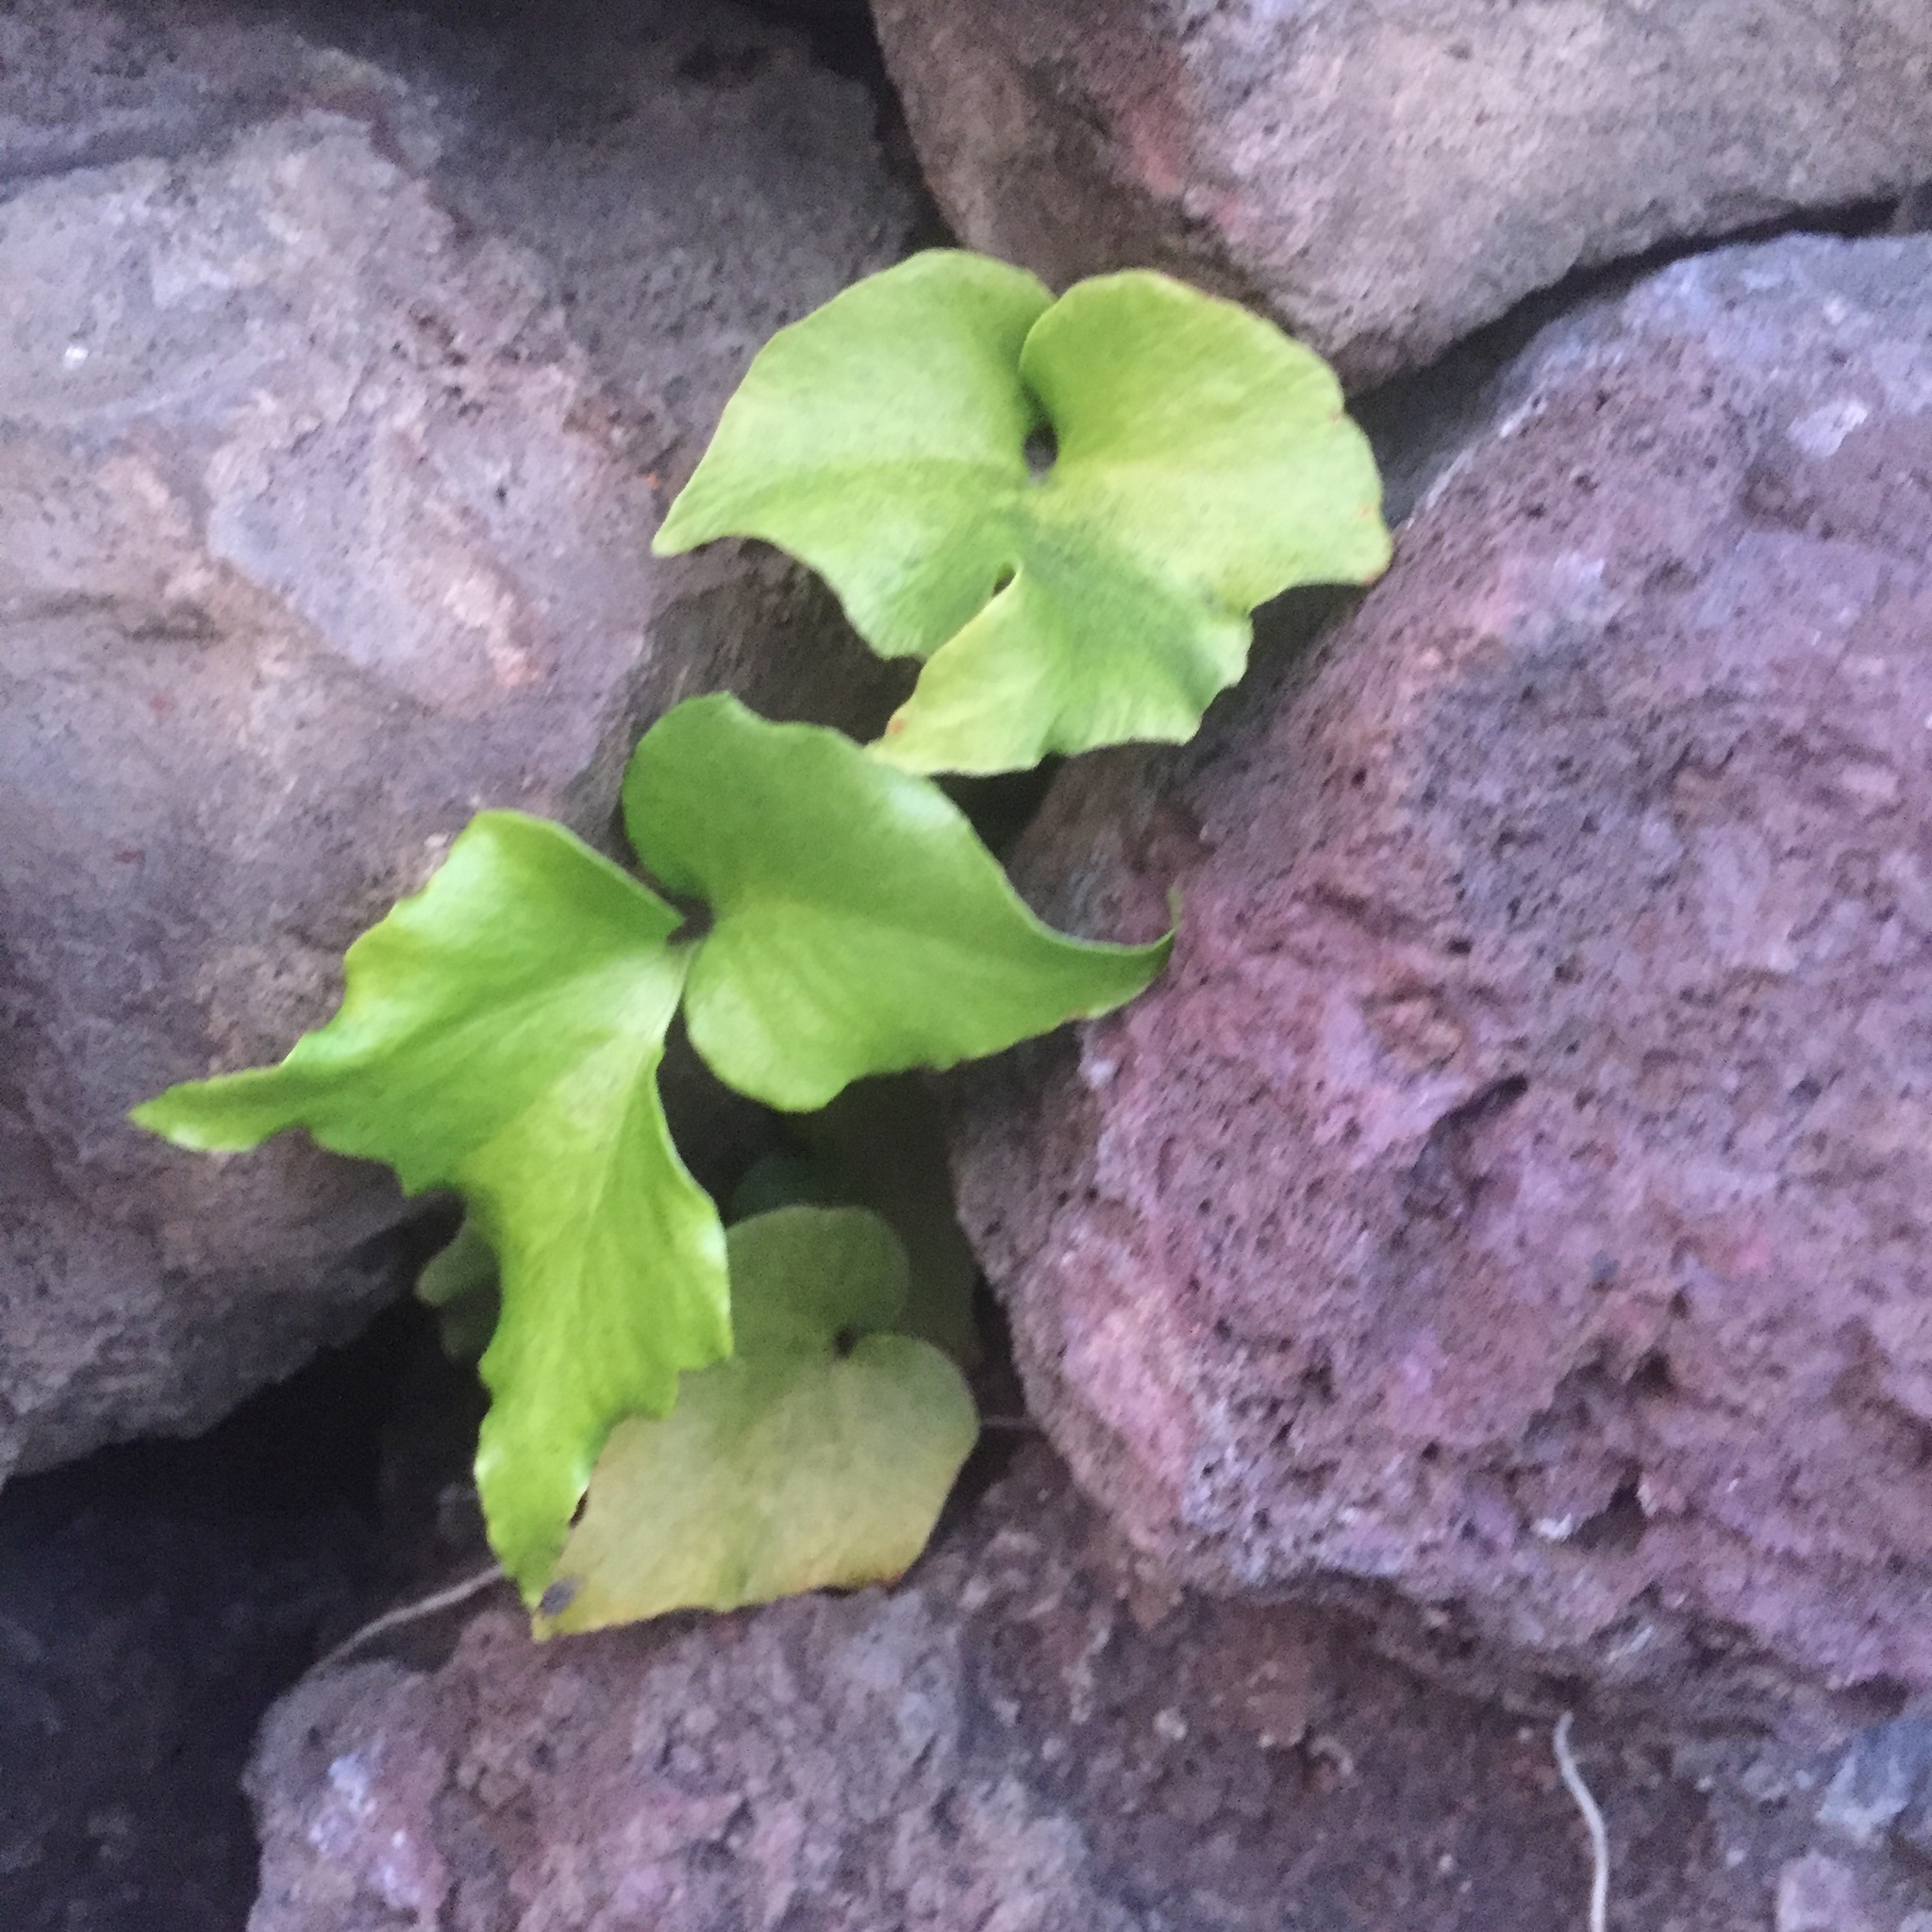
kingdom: Plantae
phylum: Tracheophyta
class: Polypodiopsida
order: Polypodiales
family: Dryopteridaceae
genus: Cyrtomium
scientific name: Cyrtomium falcatum
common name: House holly-fern
